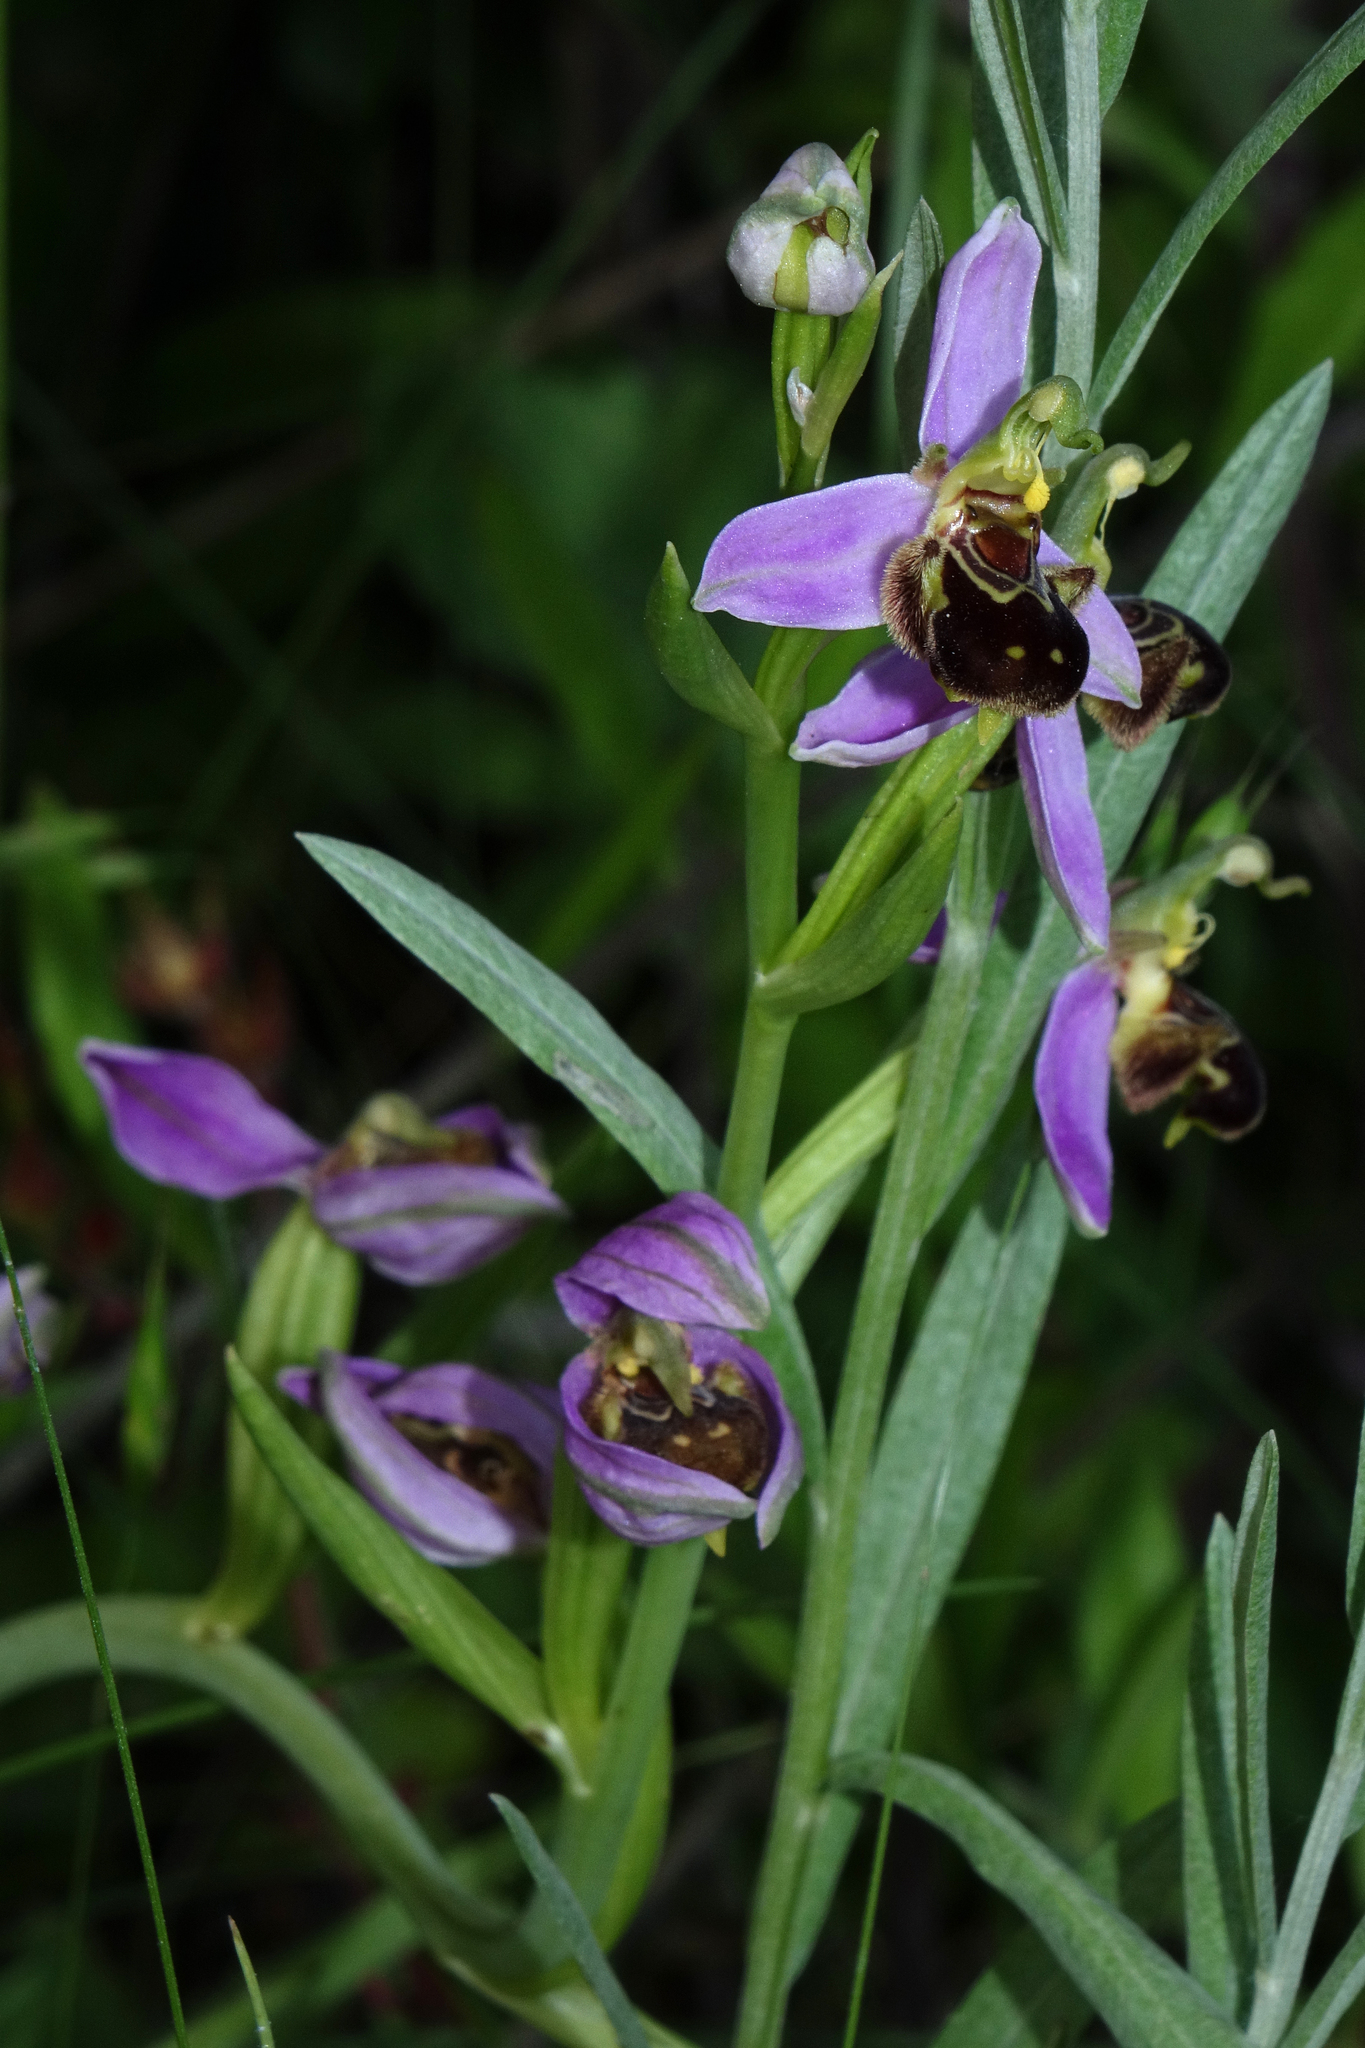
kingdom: Plantae
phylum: Tracheophyta
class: Liliopsida
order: Asparagales
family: Orchidaceae
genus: Ophrys
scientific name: Ophrys apifera
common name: Bee orchid
